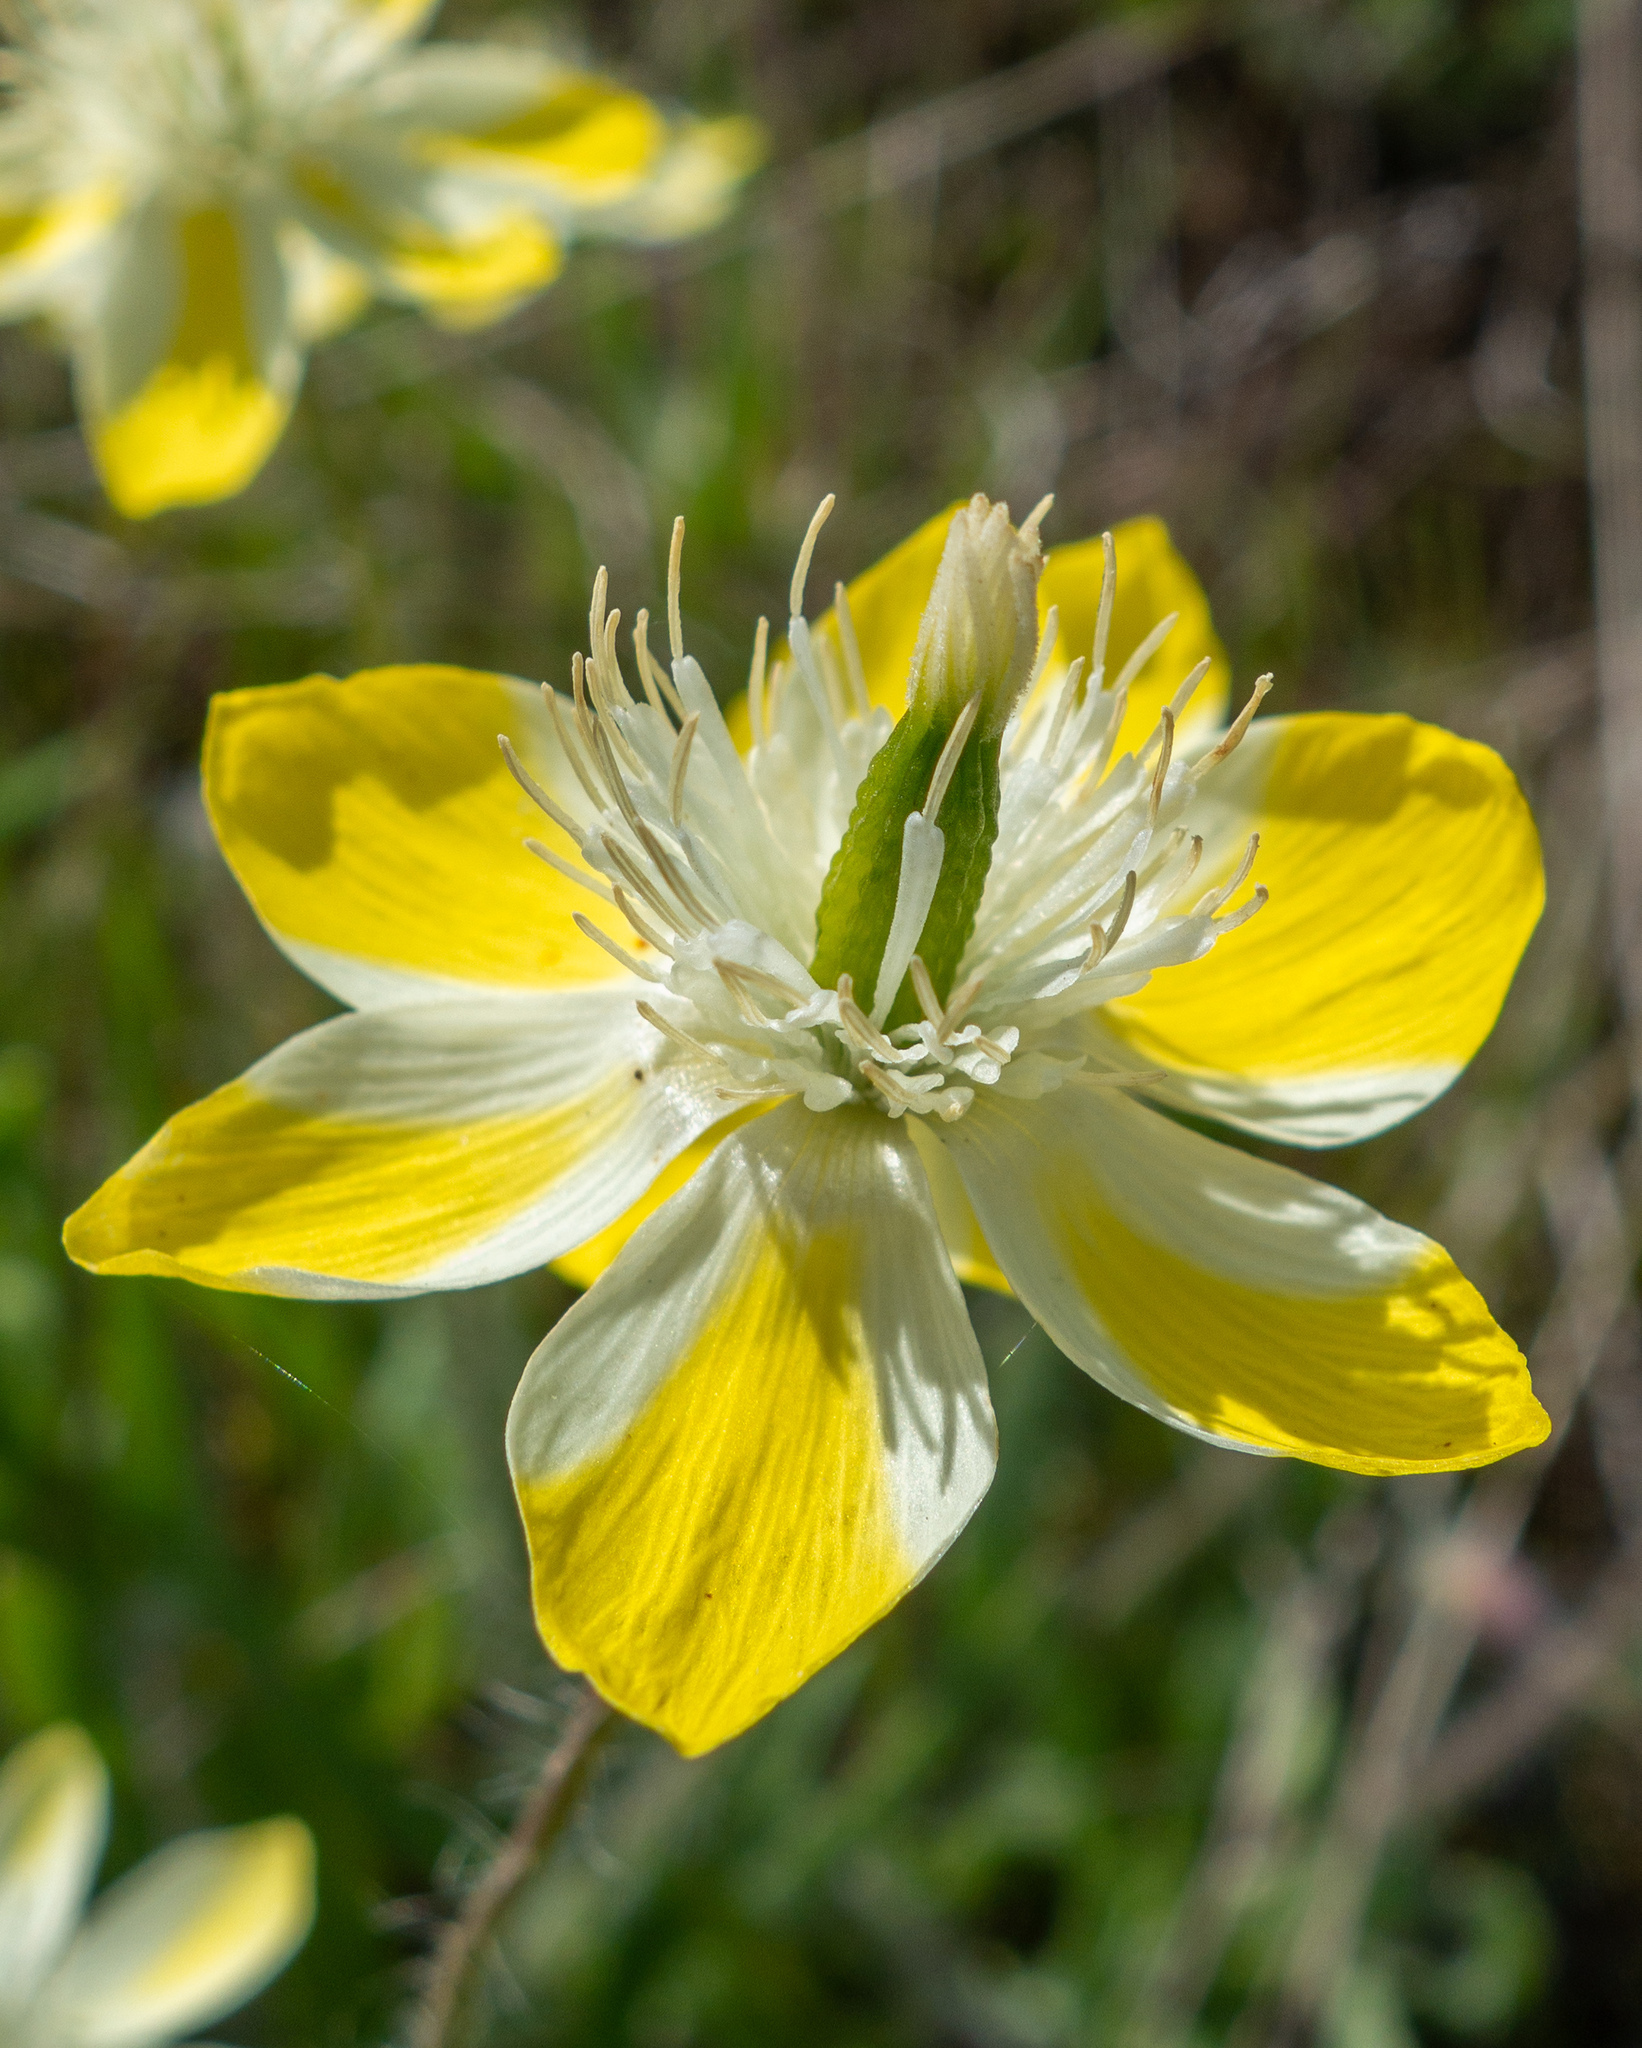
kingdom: Plantae
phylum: Tracheophyta
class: Magnoliopsida
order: Ranunculales
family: Papaveraceae
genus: Platystemon
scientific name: Platystemon californicus
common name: Cream-cups
